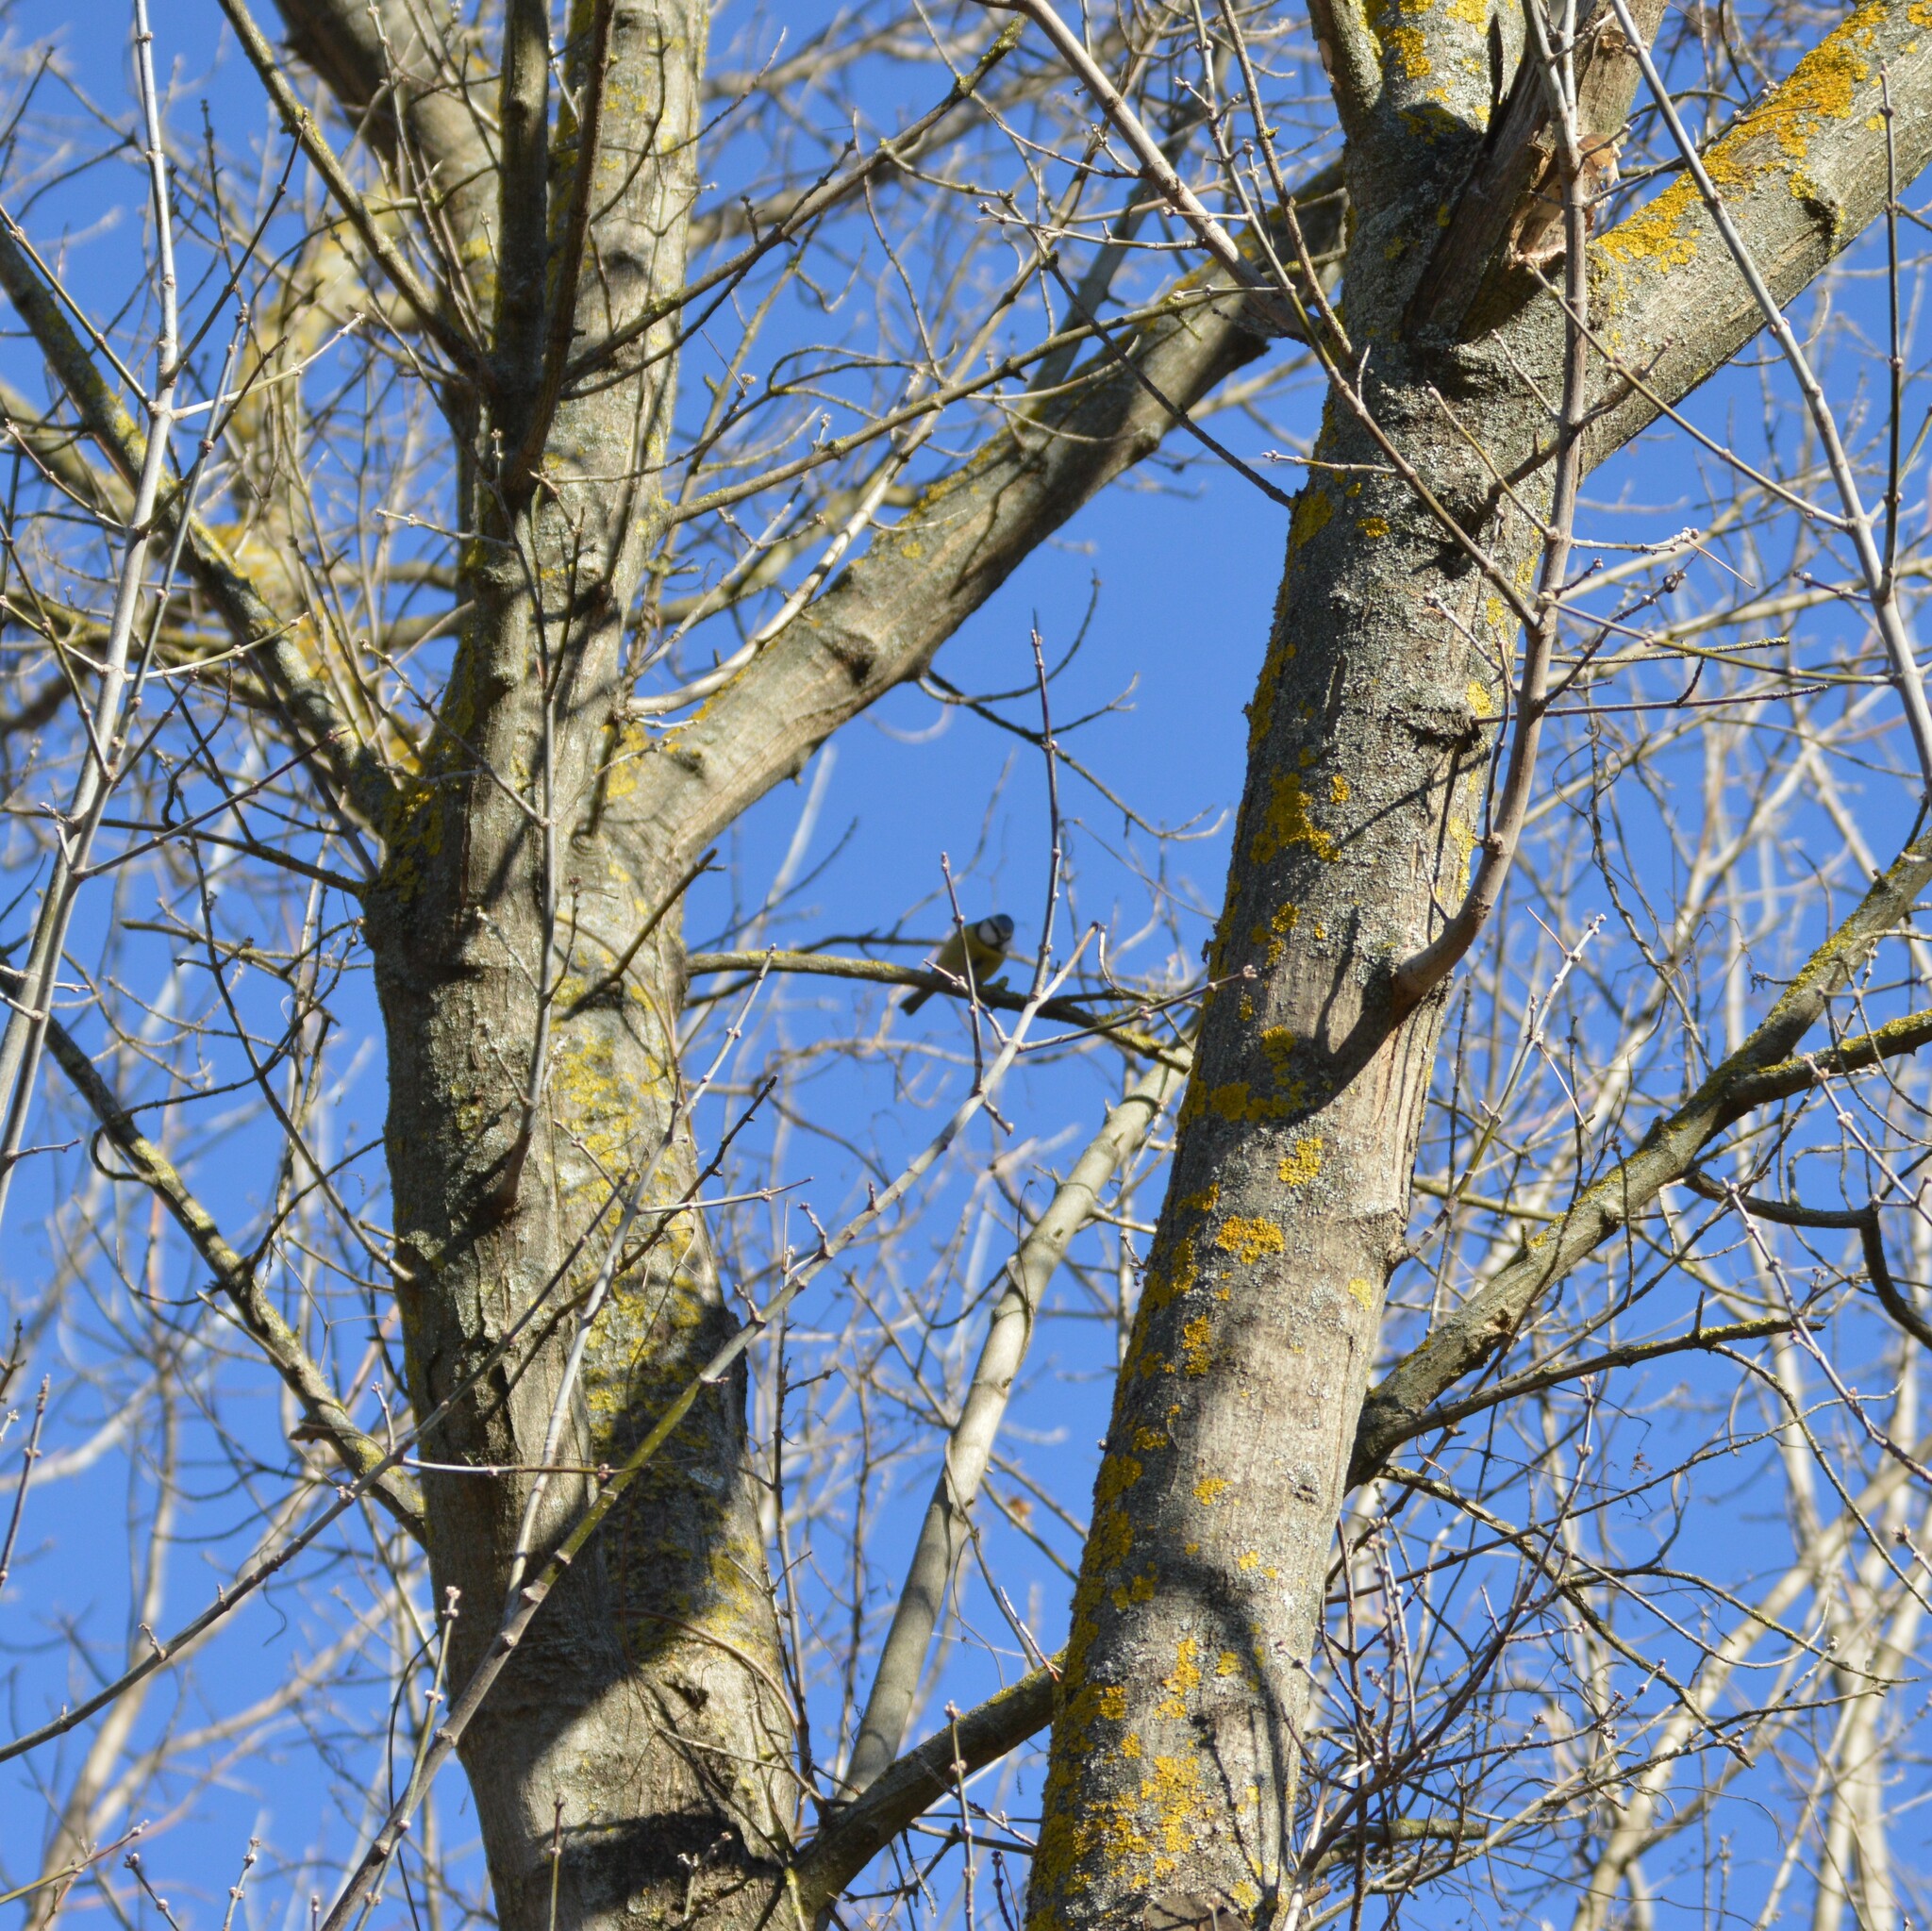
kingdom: Animalia
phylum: Chordata
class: Aves
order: Passeriformes
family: Paridae
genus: Cyanistes
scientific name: Cyanistes caeruleus
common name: Eurasian blue tit
